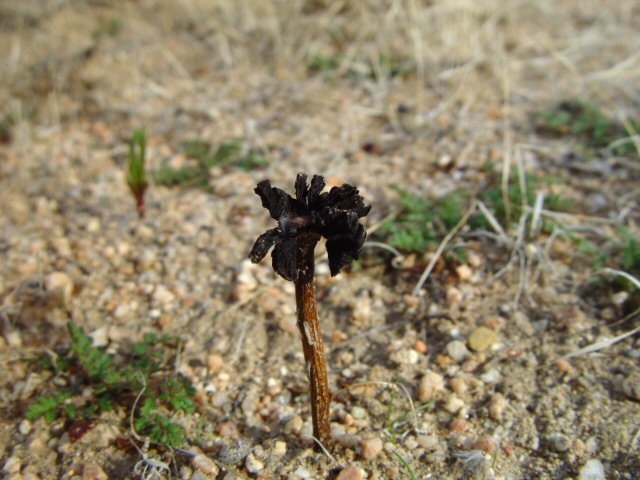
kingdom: Fungi
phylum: Basidiomycota
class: Agaricomycetes
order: Agaricales
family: Agaricaceae
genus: Montagnea
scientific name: Montagnea arenaria
